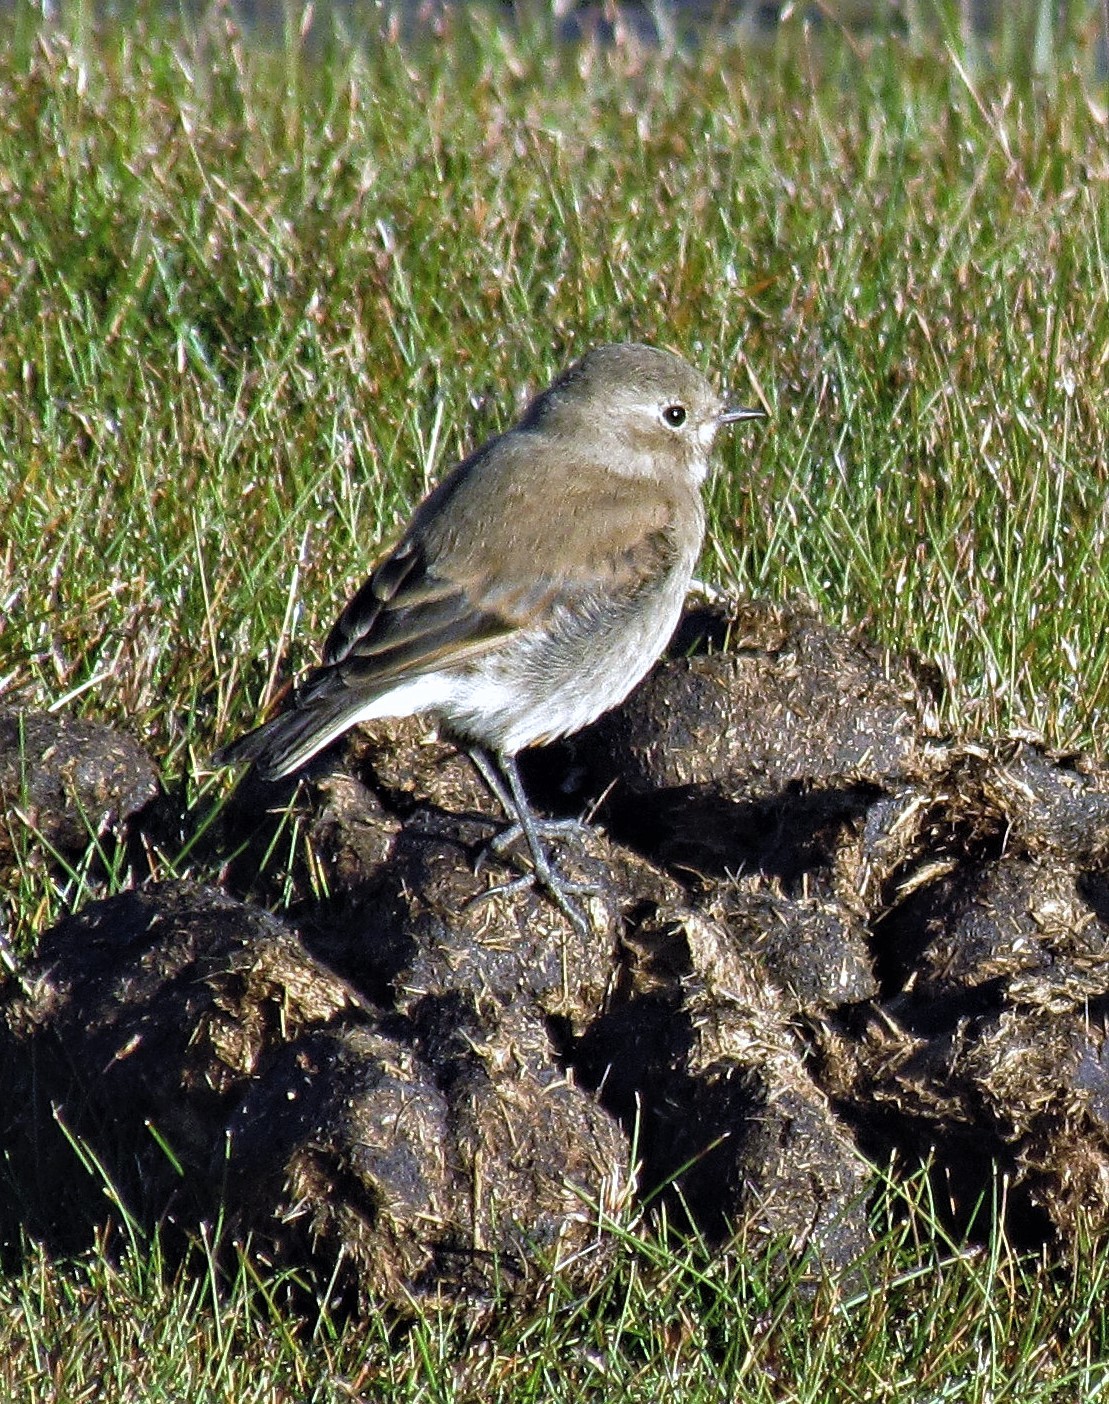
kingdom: Animalia
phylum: Chordata
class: Aves
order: Passeriformes
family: Tyrannidae
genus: Lessonia
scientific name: Lessonia rufa
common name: Austral negrito
